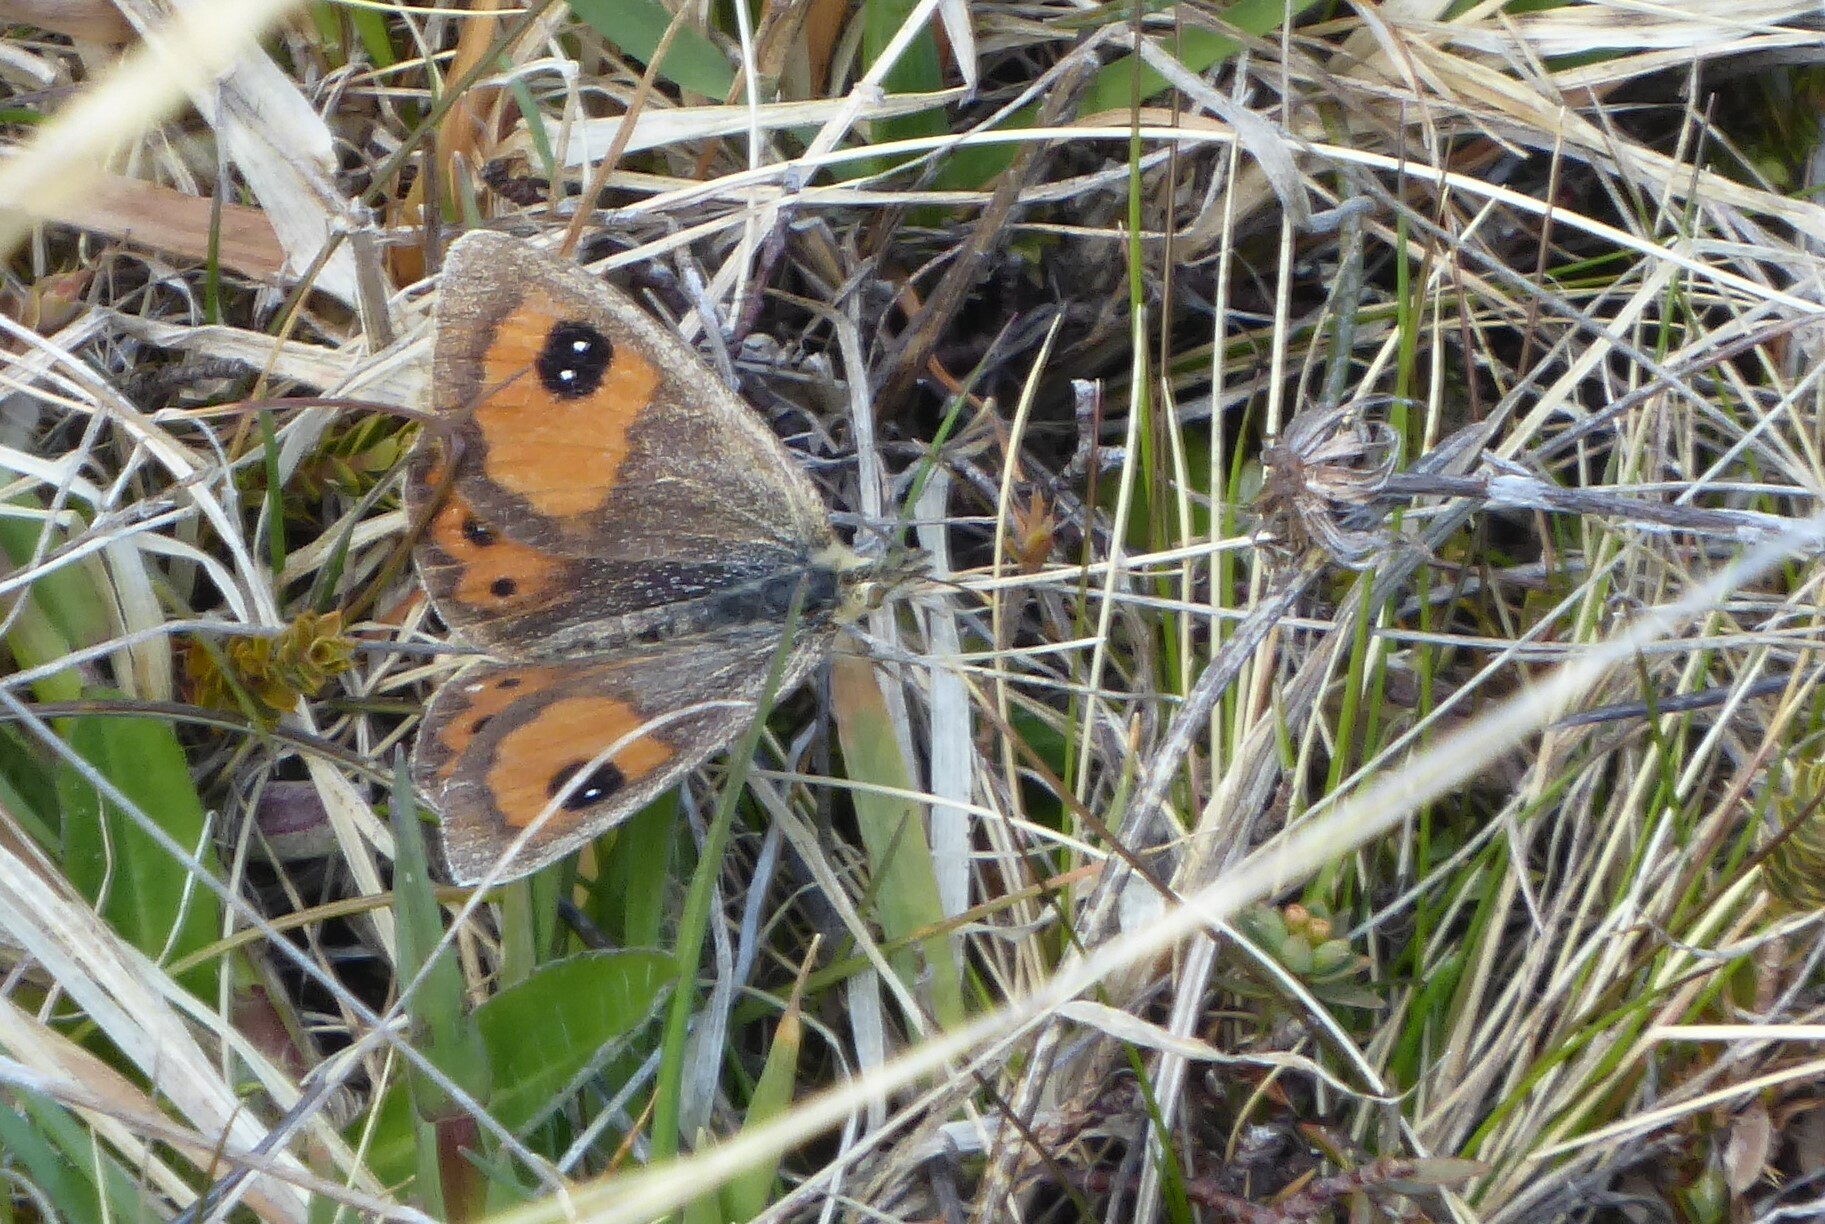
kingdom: Animalia
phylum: Arthropoda
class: Insecta
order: Lepidoptera
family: Nymphalidae
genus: Argyrophenga
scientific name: Argyrophenga antipodum
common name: Common tussock butterfly
